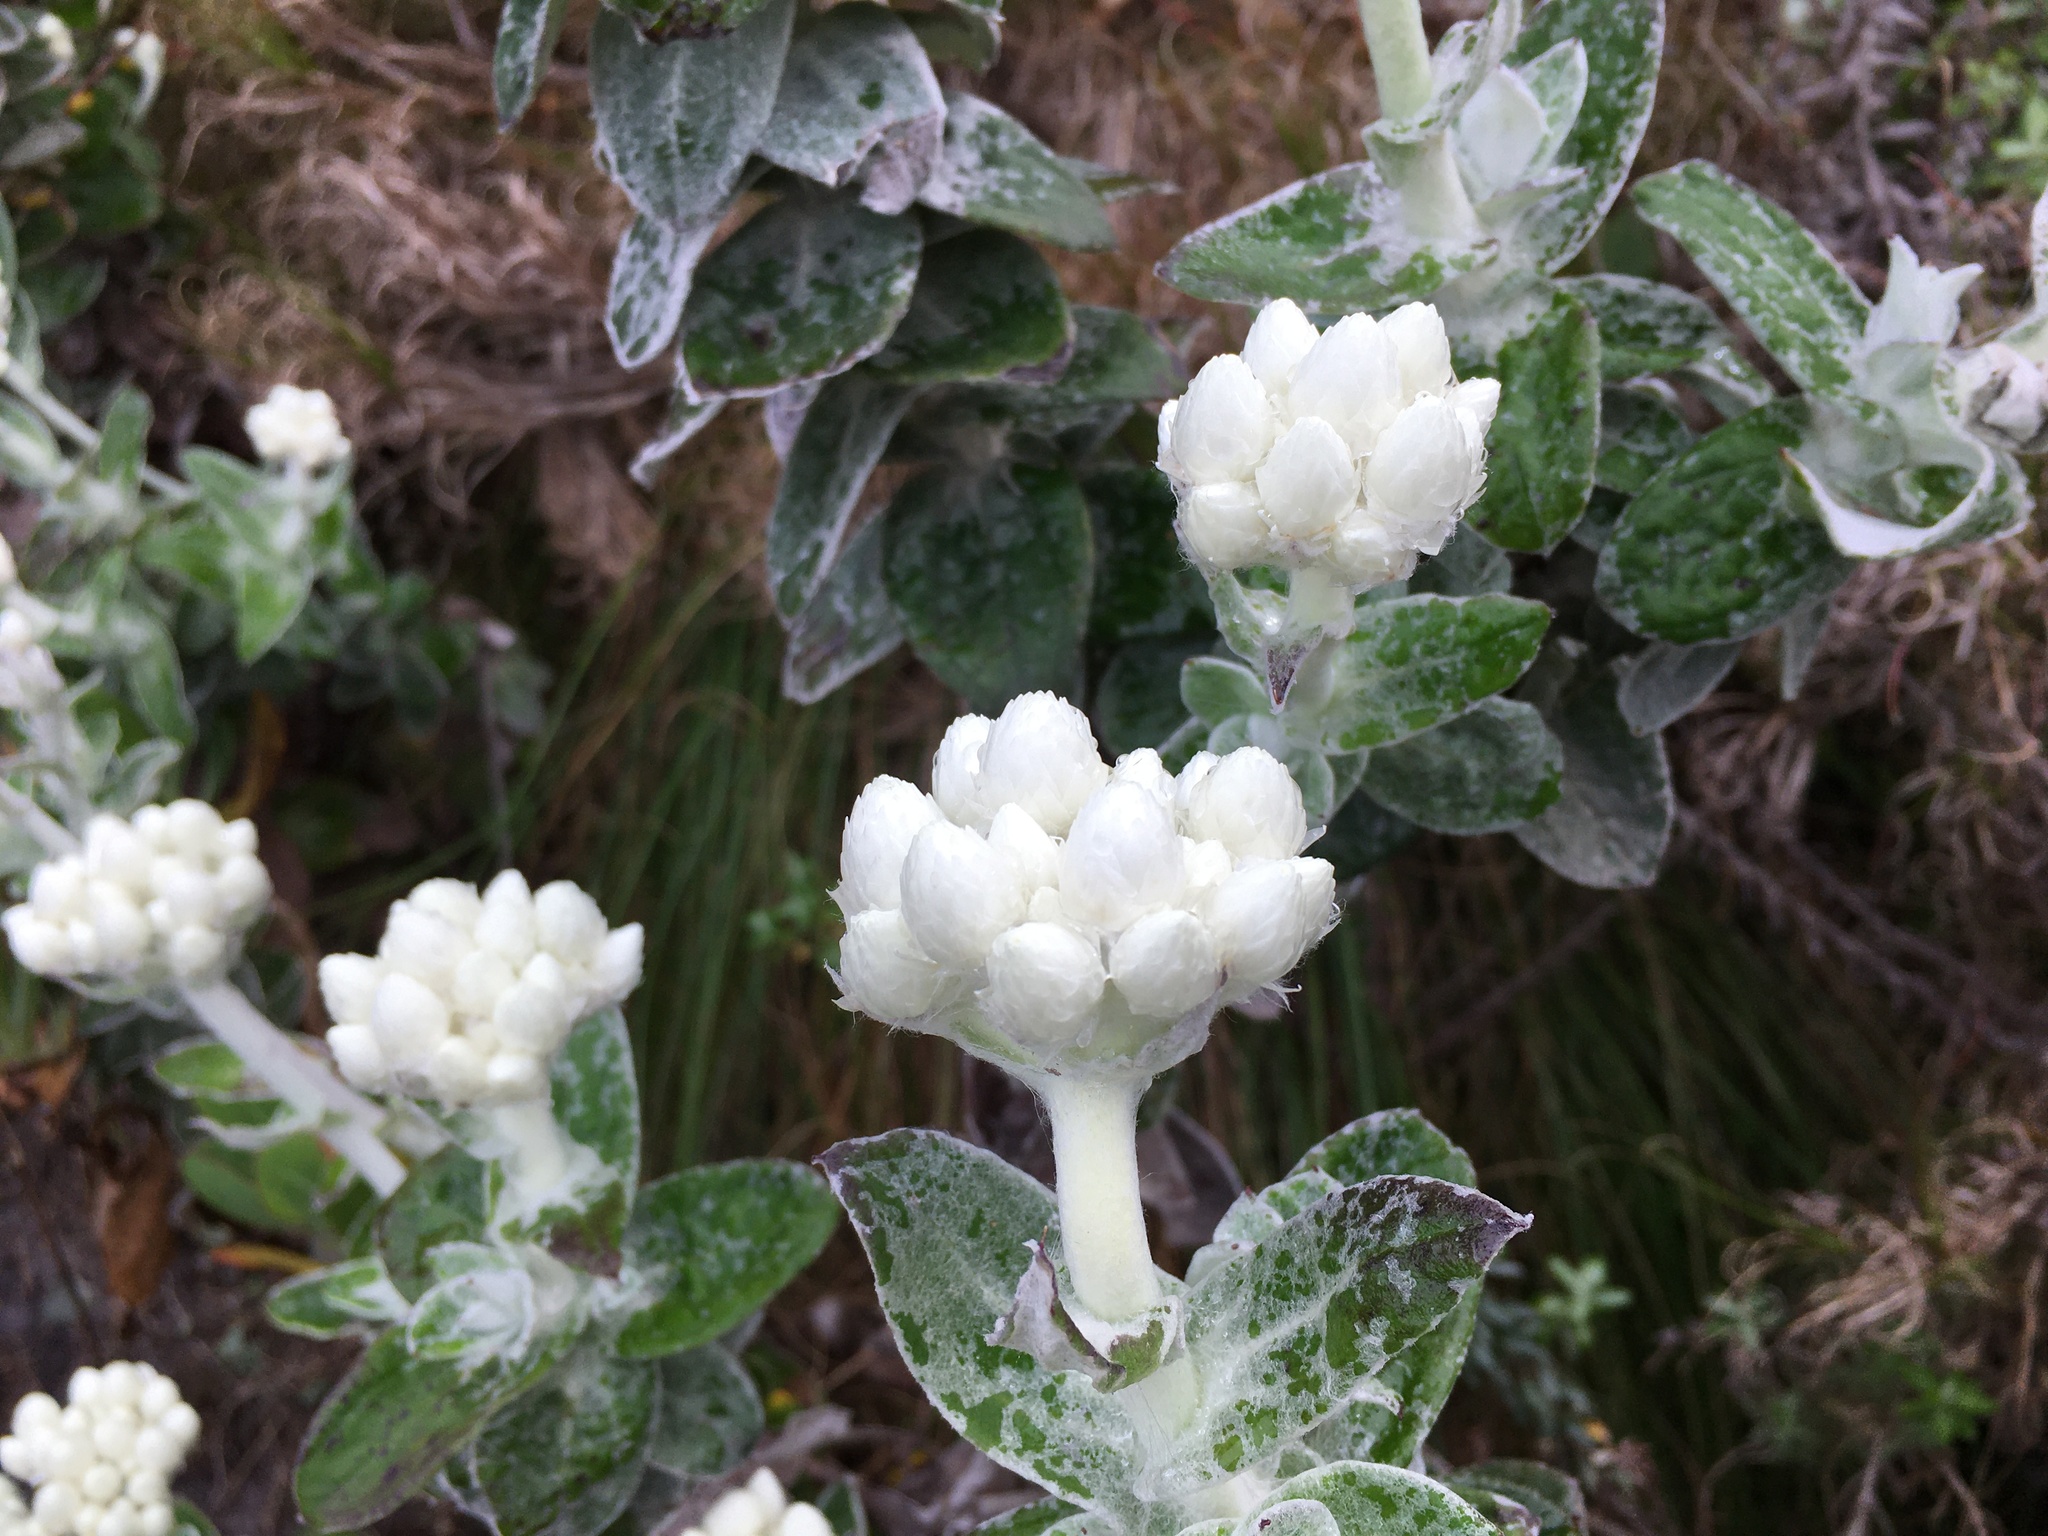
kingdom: Plantae
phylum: Tracheophyta
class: Magnoliopsida
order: Asterales
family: Asteraceae
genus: Helichrysum
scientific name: Helichrysum fruticans
